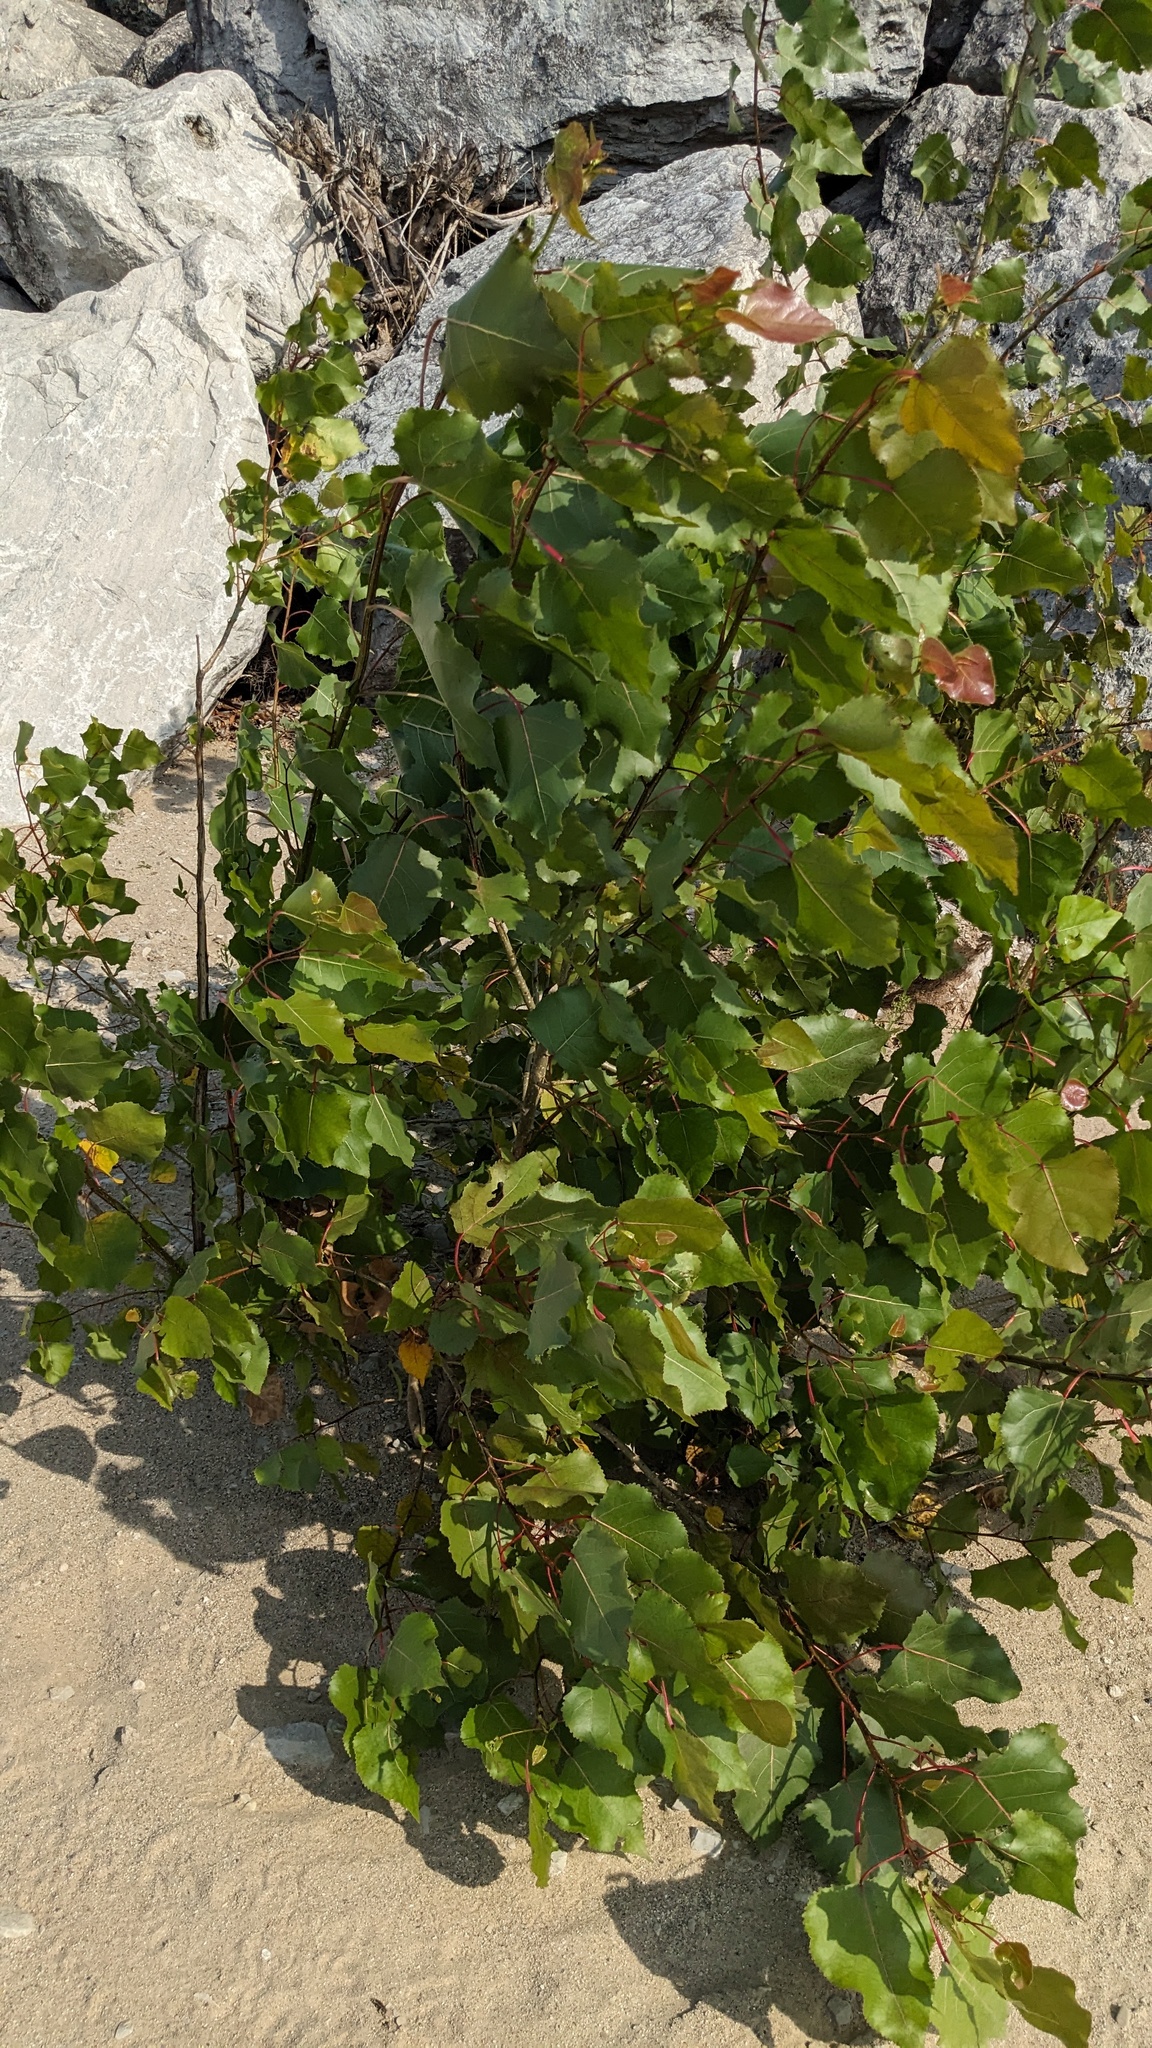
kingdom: Plantae
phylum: Tracheophyta
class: Magnoliopsida
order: Malpighiales
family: Salicaceae
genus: Populus
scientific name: Populus deltoides
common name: Eastern cottonwood
